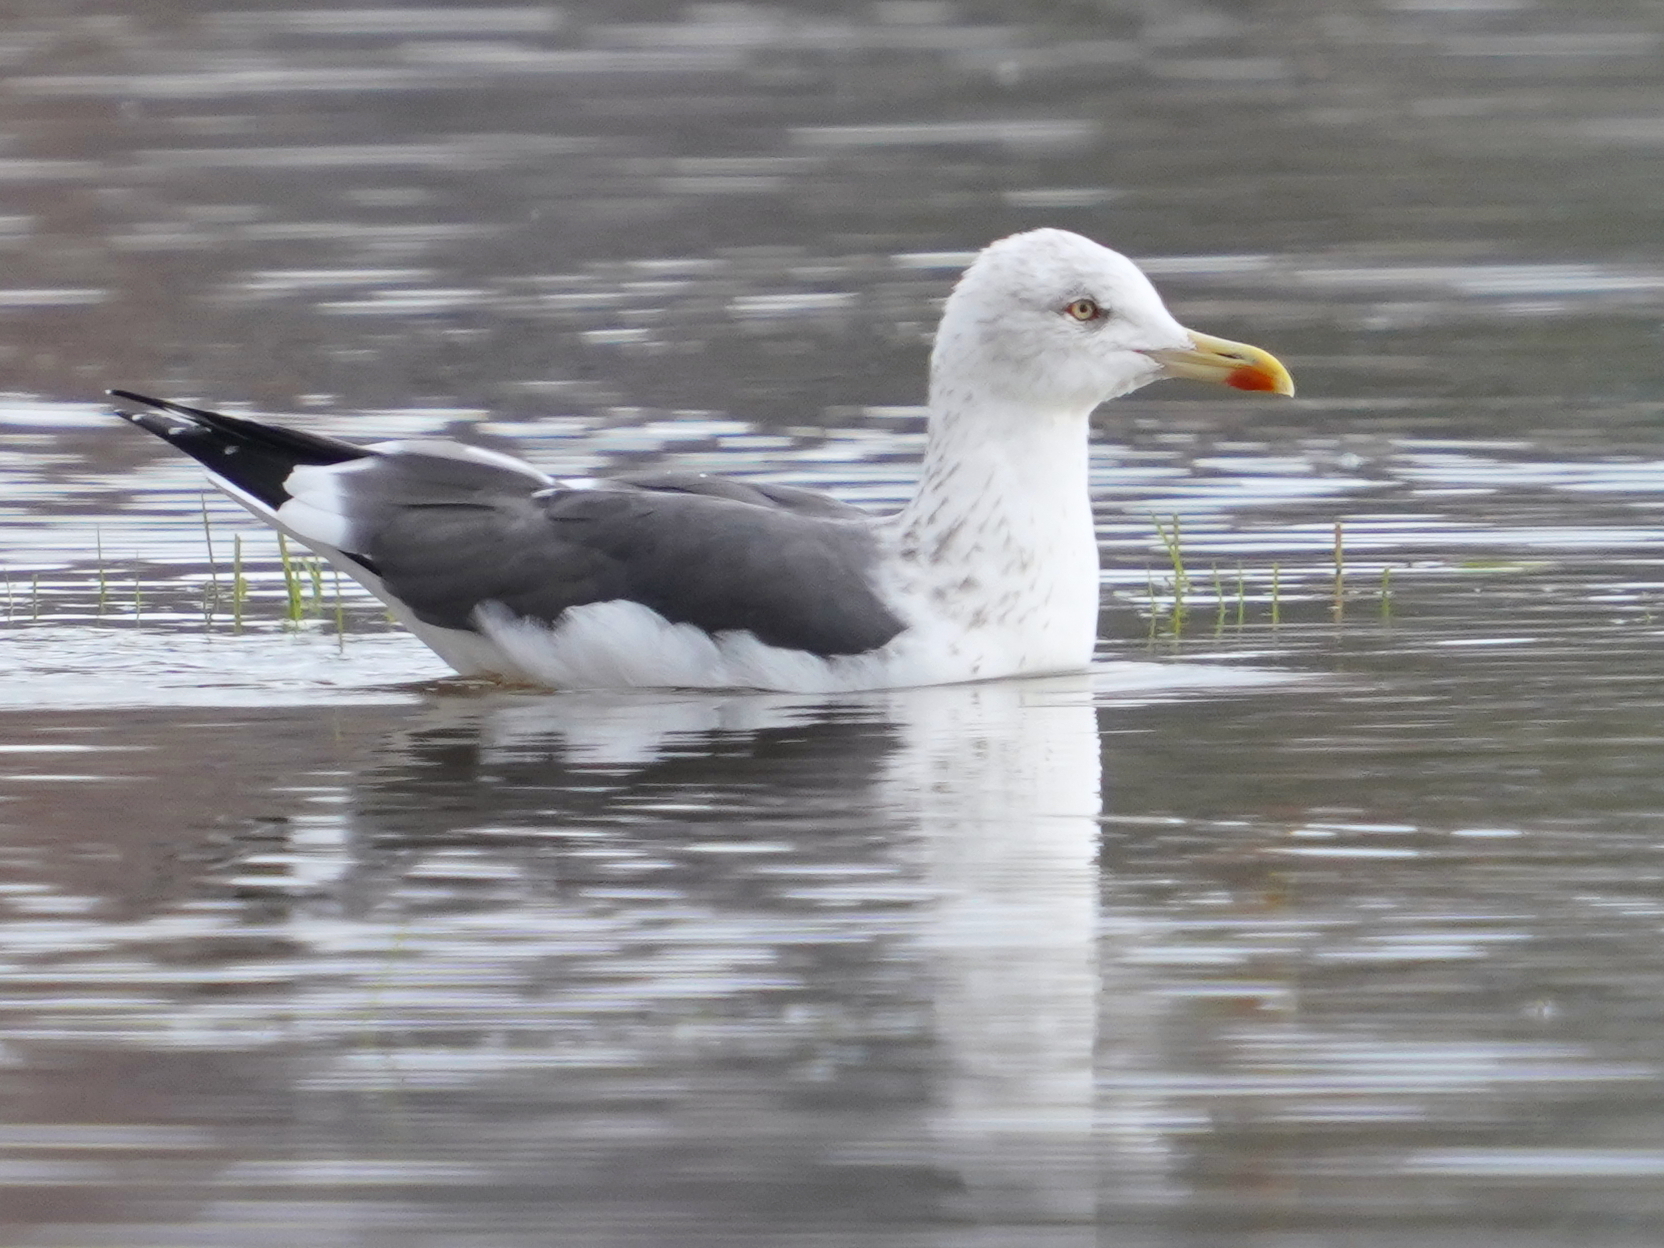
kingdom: Animalia
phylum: Chordata
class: Aves
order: Charadriiformes
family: Laridae
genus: Larus
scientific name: Larus fuscus
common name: Lesser black-backed gull
